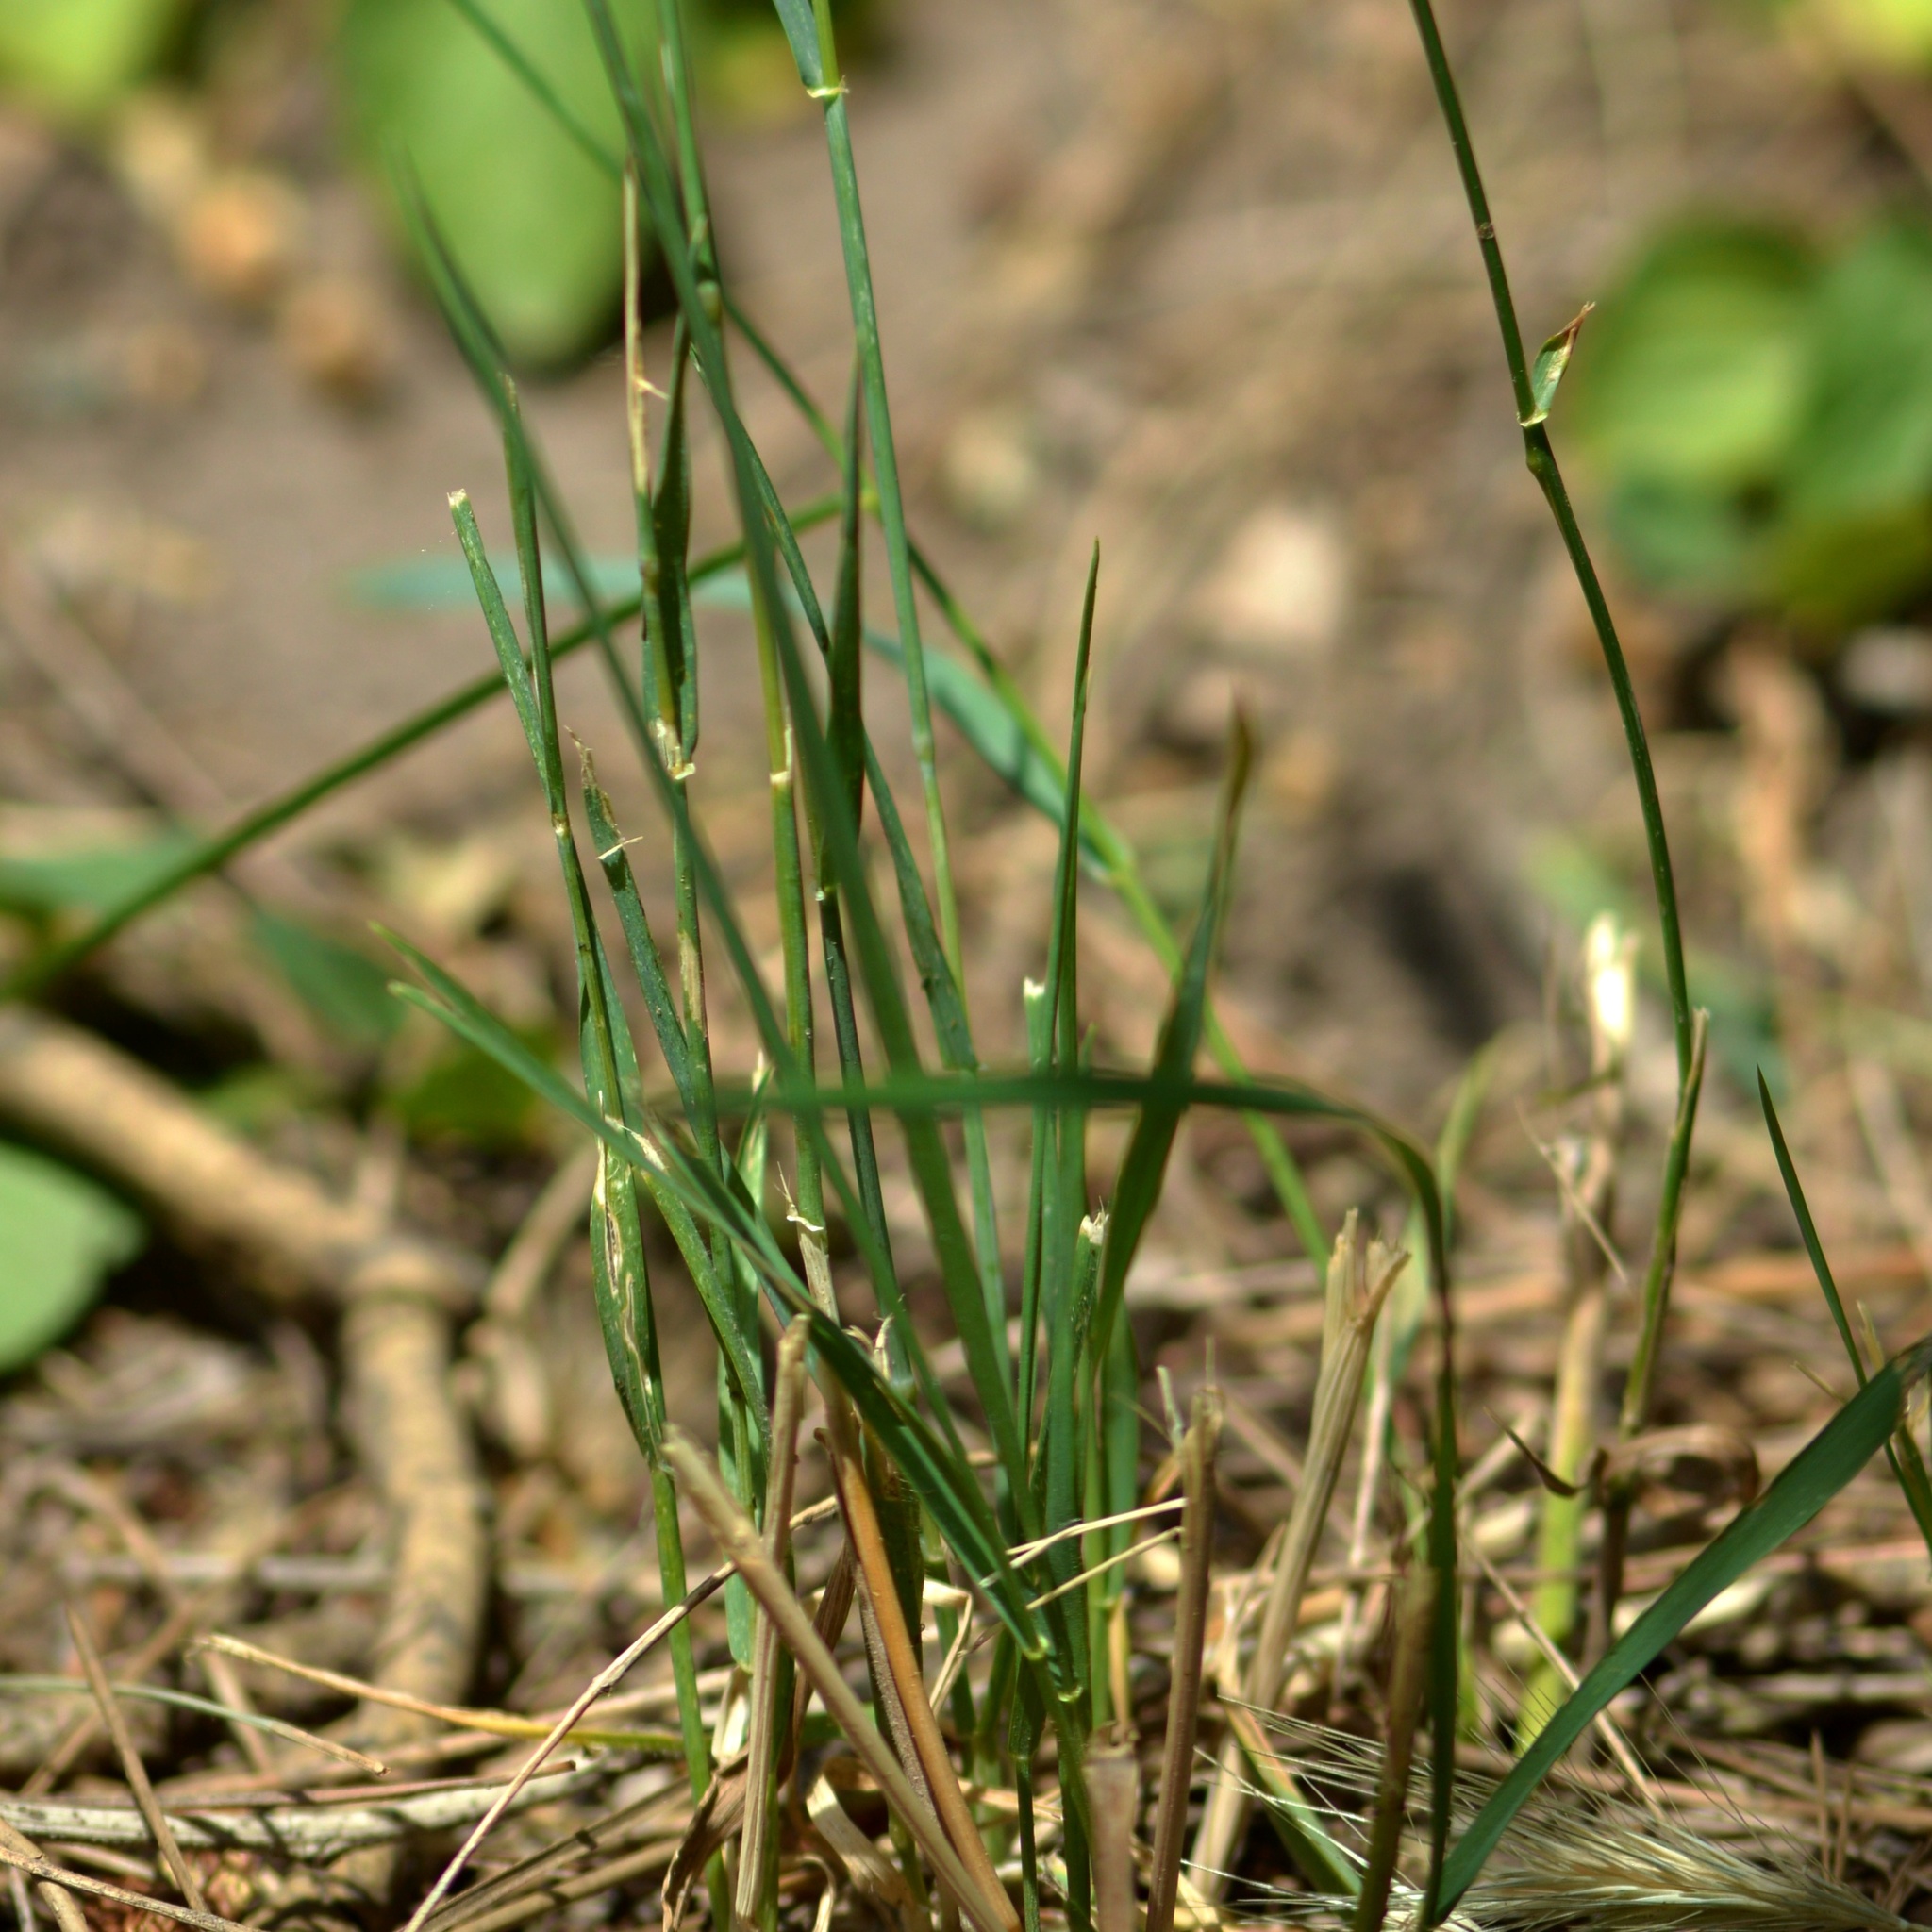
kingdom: Plantae
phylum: Tracheophyta
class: Liliopsida
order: Poales
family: Poaceae
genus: Hordeum
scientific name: Hordeum murinum
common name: Wall barley
